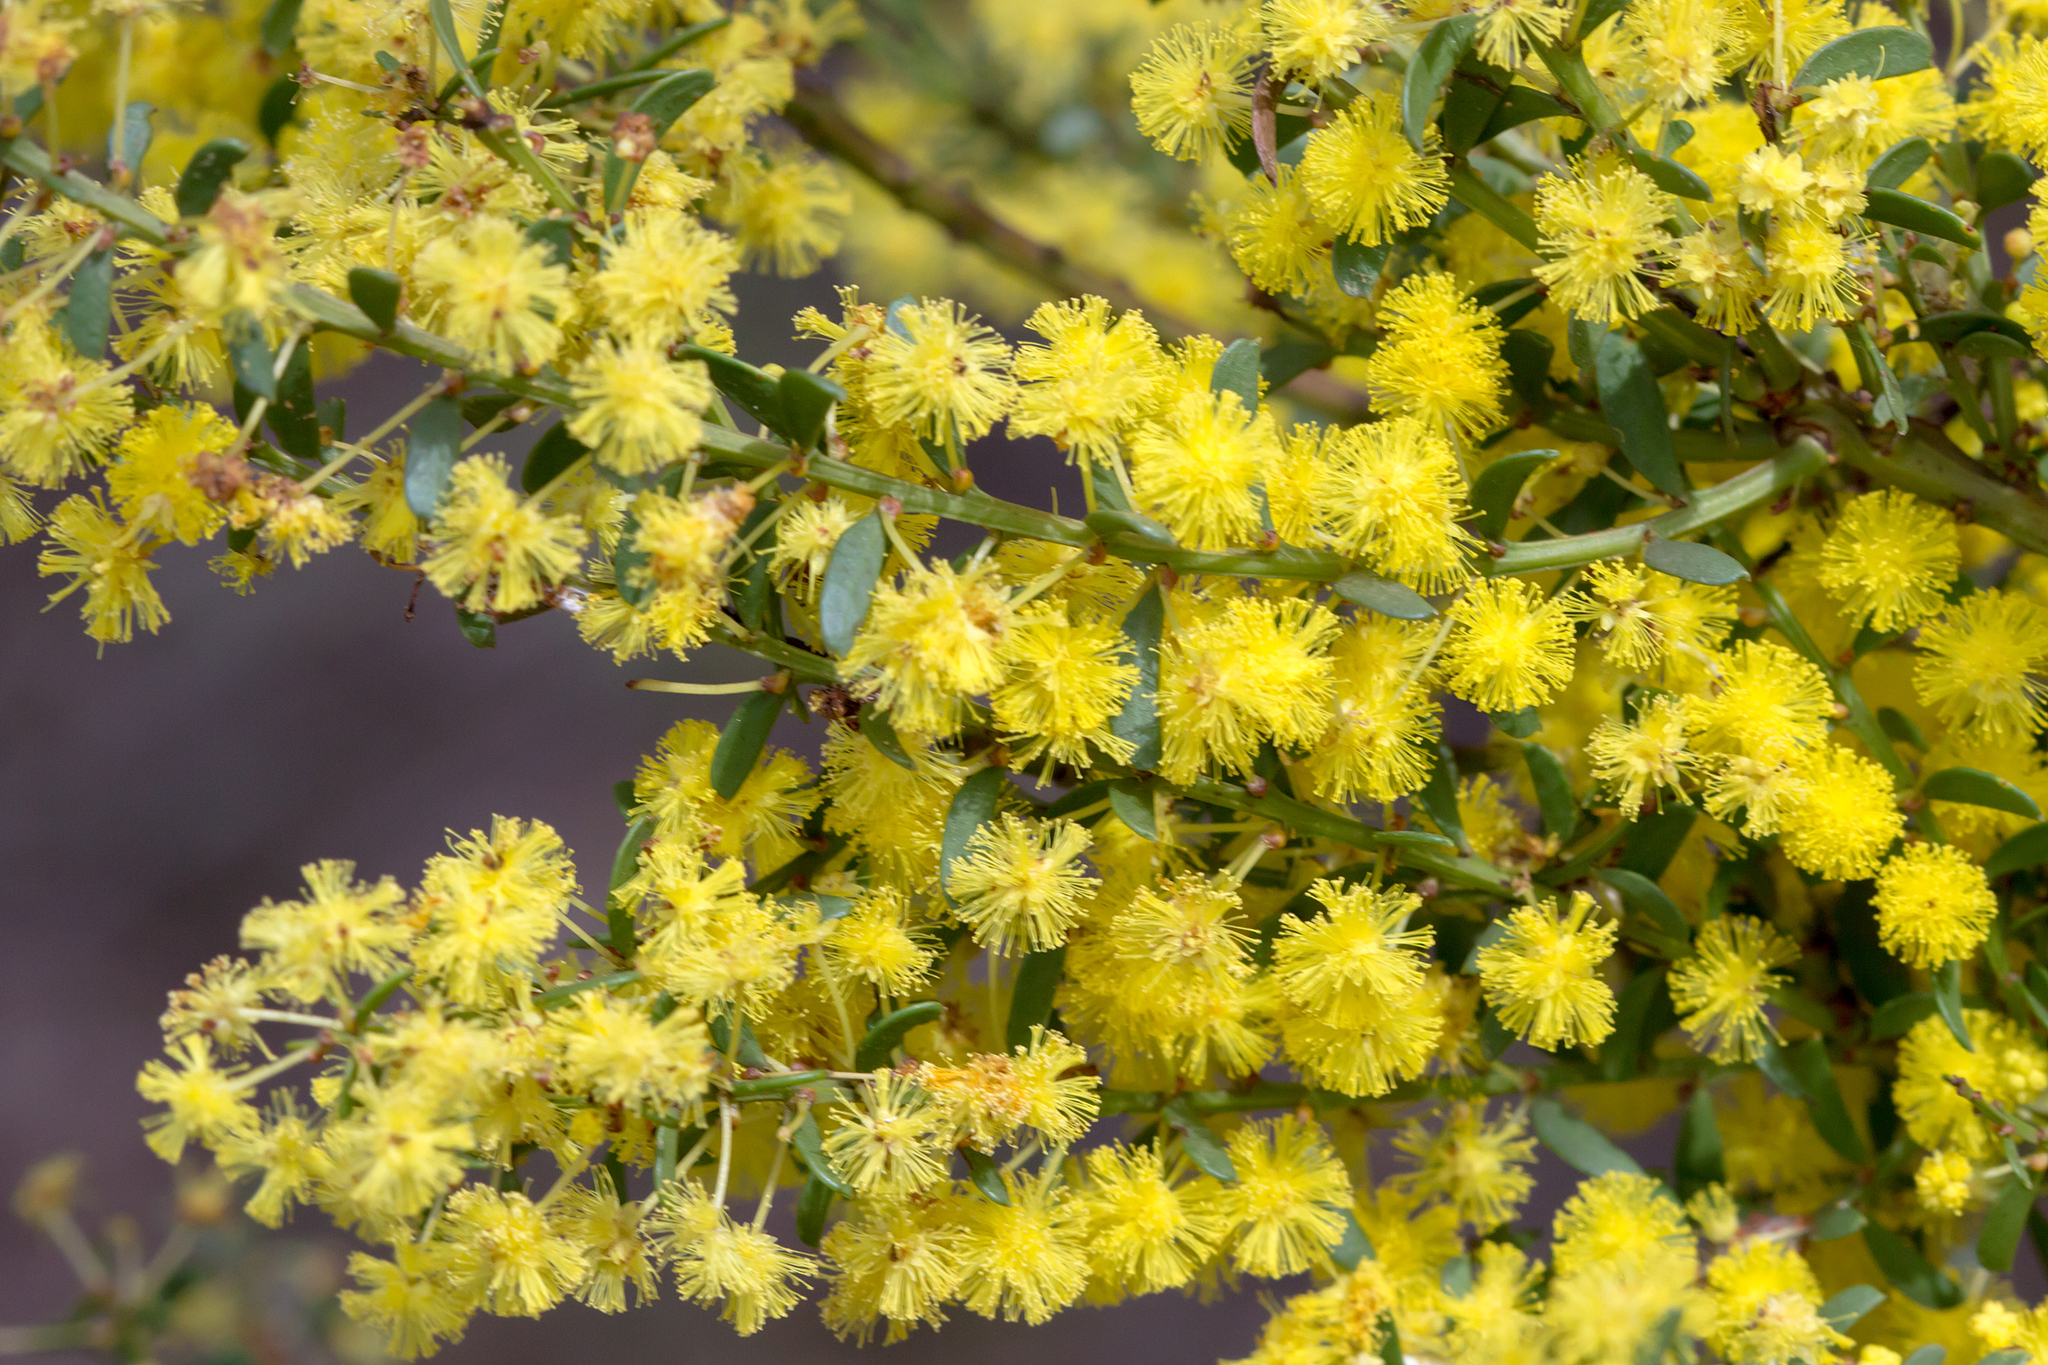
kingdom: Plantae
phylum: Tracheophyta
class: Magnoliopsida
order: Fabales
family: Fabaceae
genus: Acacia
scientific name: Acacia acinacea
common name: Gold-dust acacia
